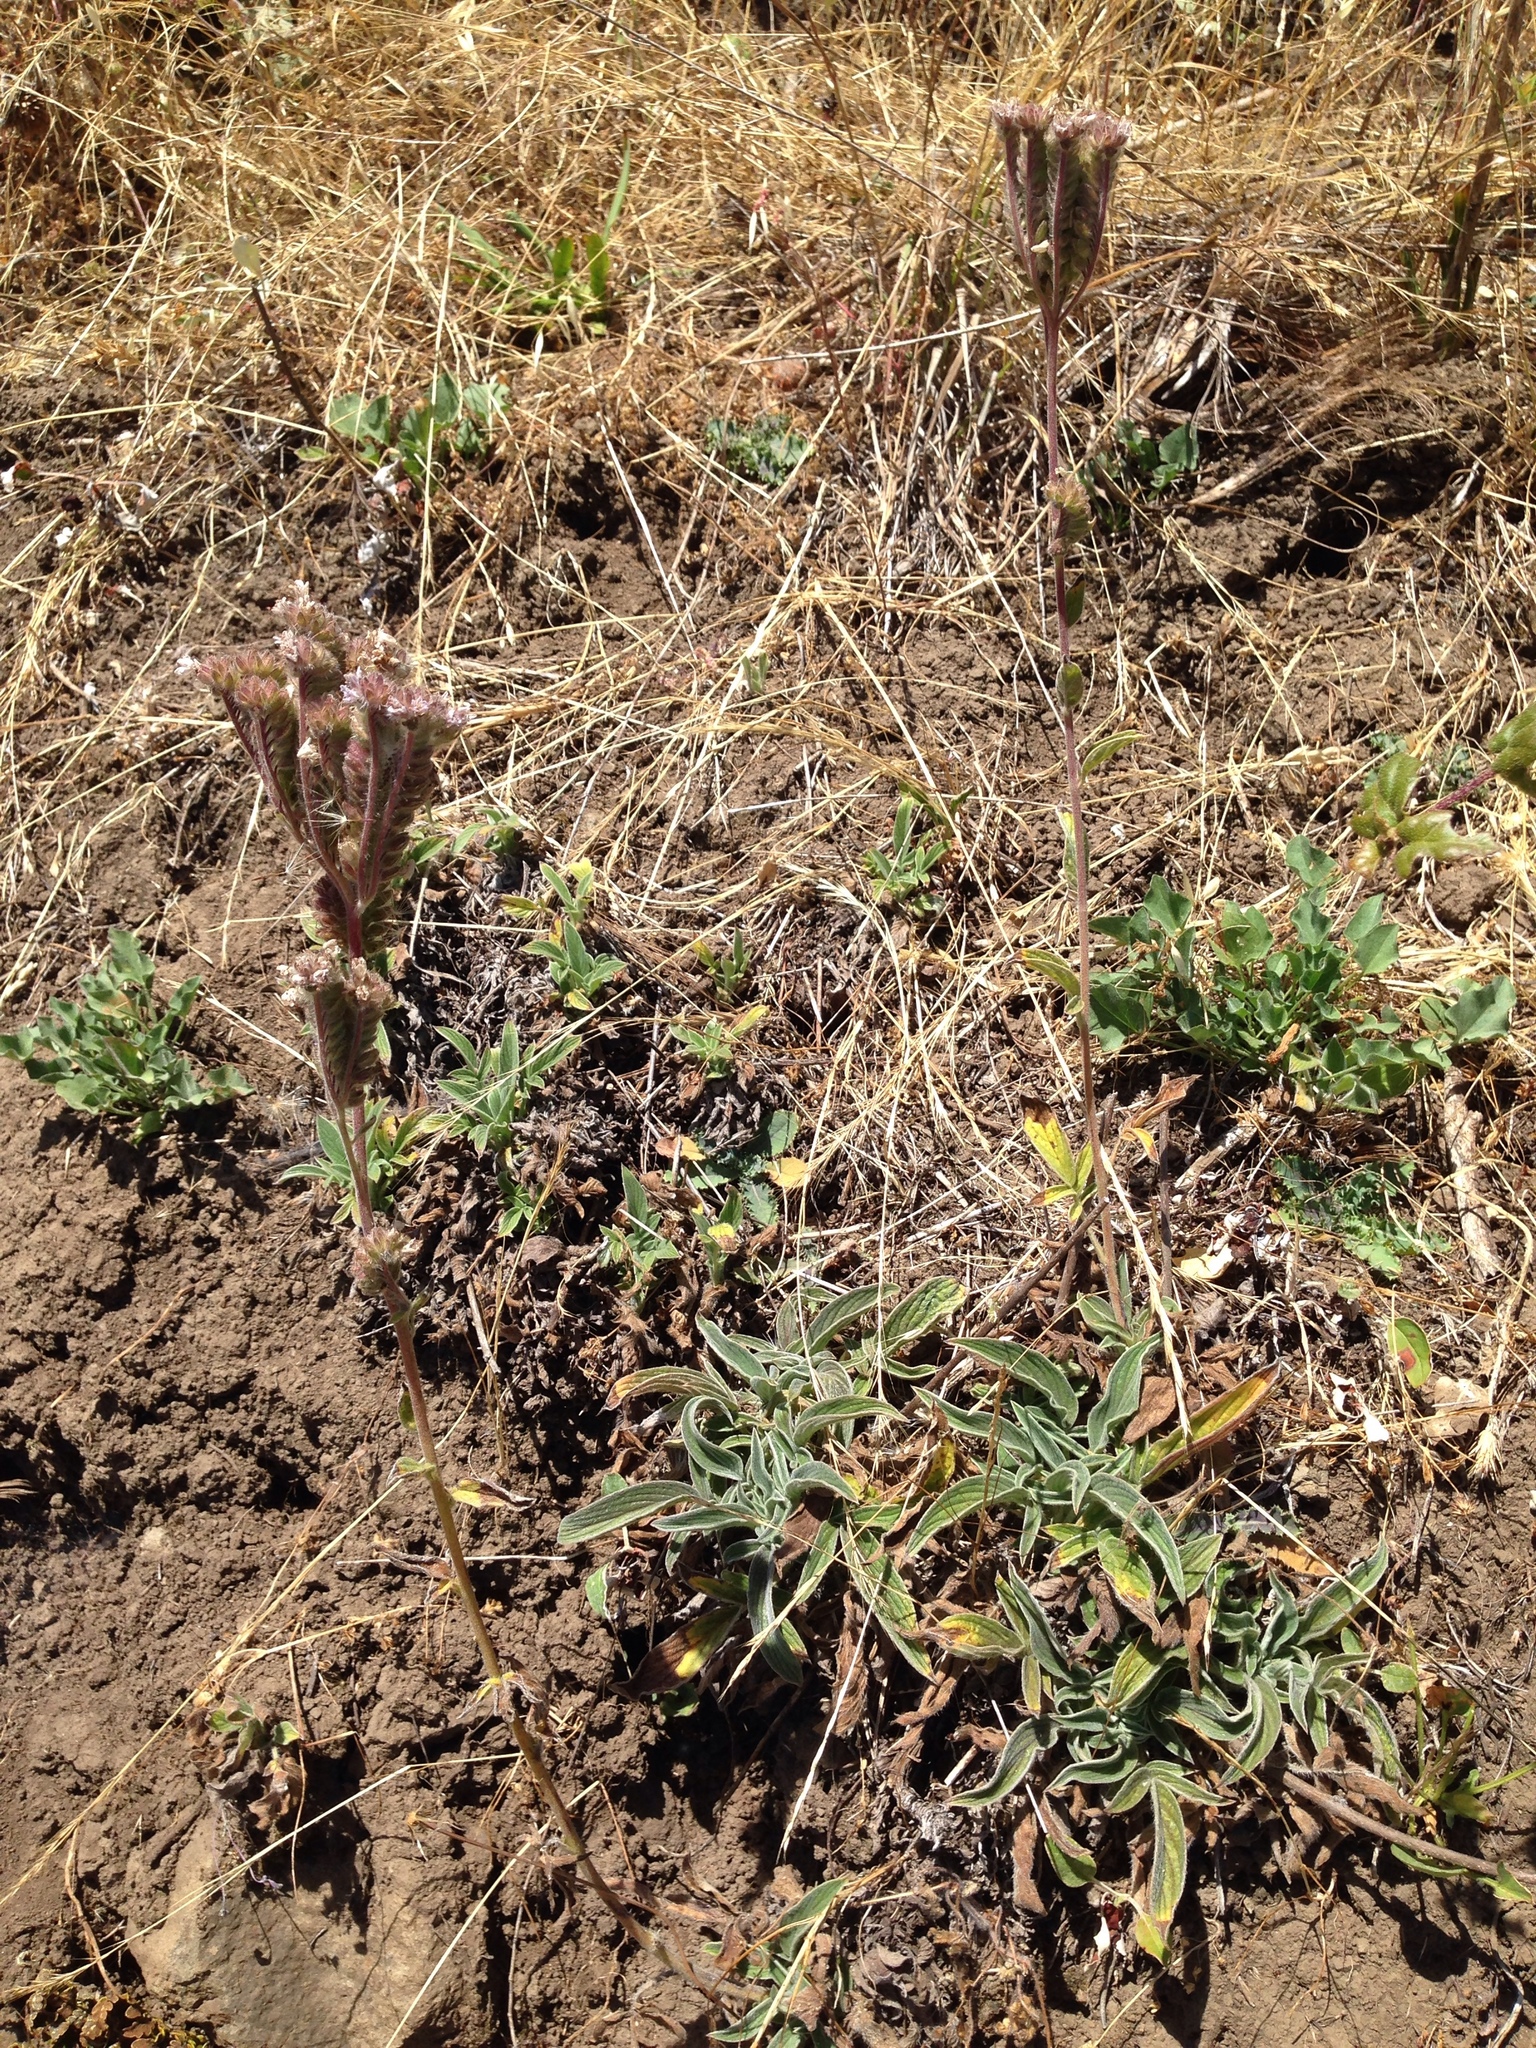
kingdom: Plantae
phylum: Tracheophyta
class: Magnoliopsida
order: Boraginales
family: Hydrophyllaceae
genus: Phacelia
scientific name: Phacelia imbricata
